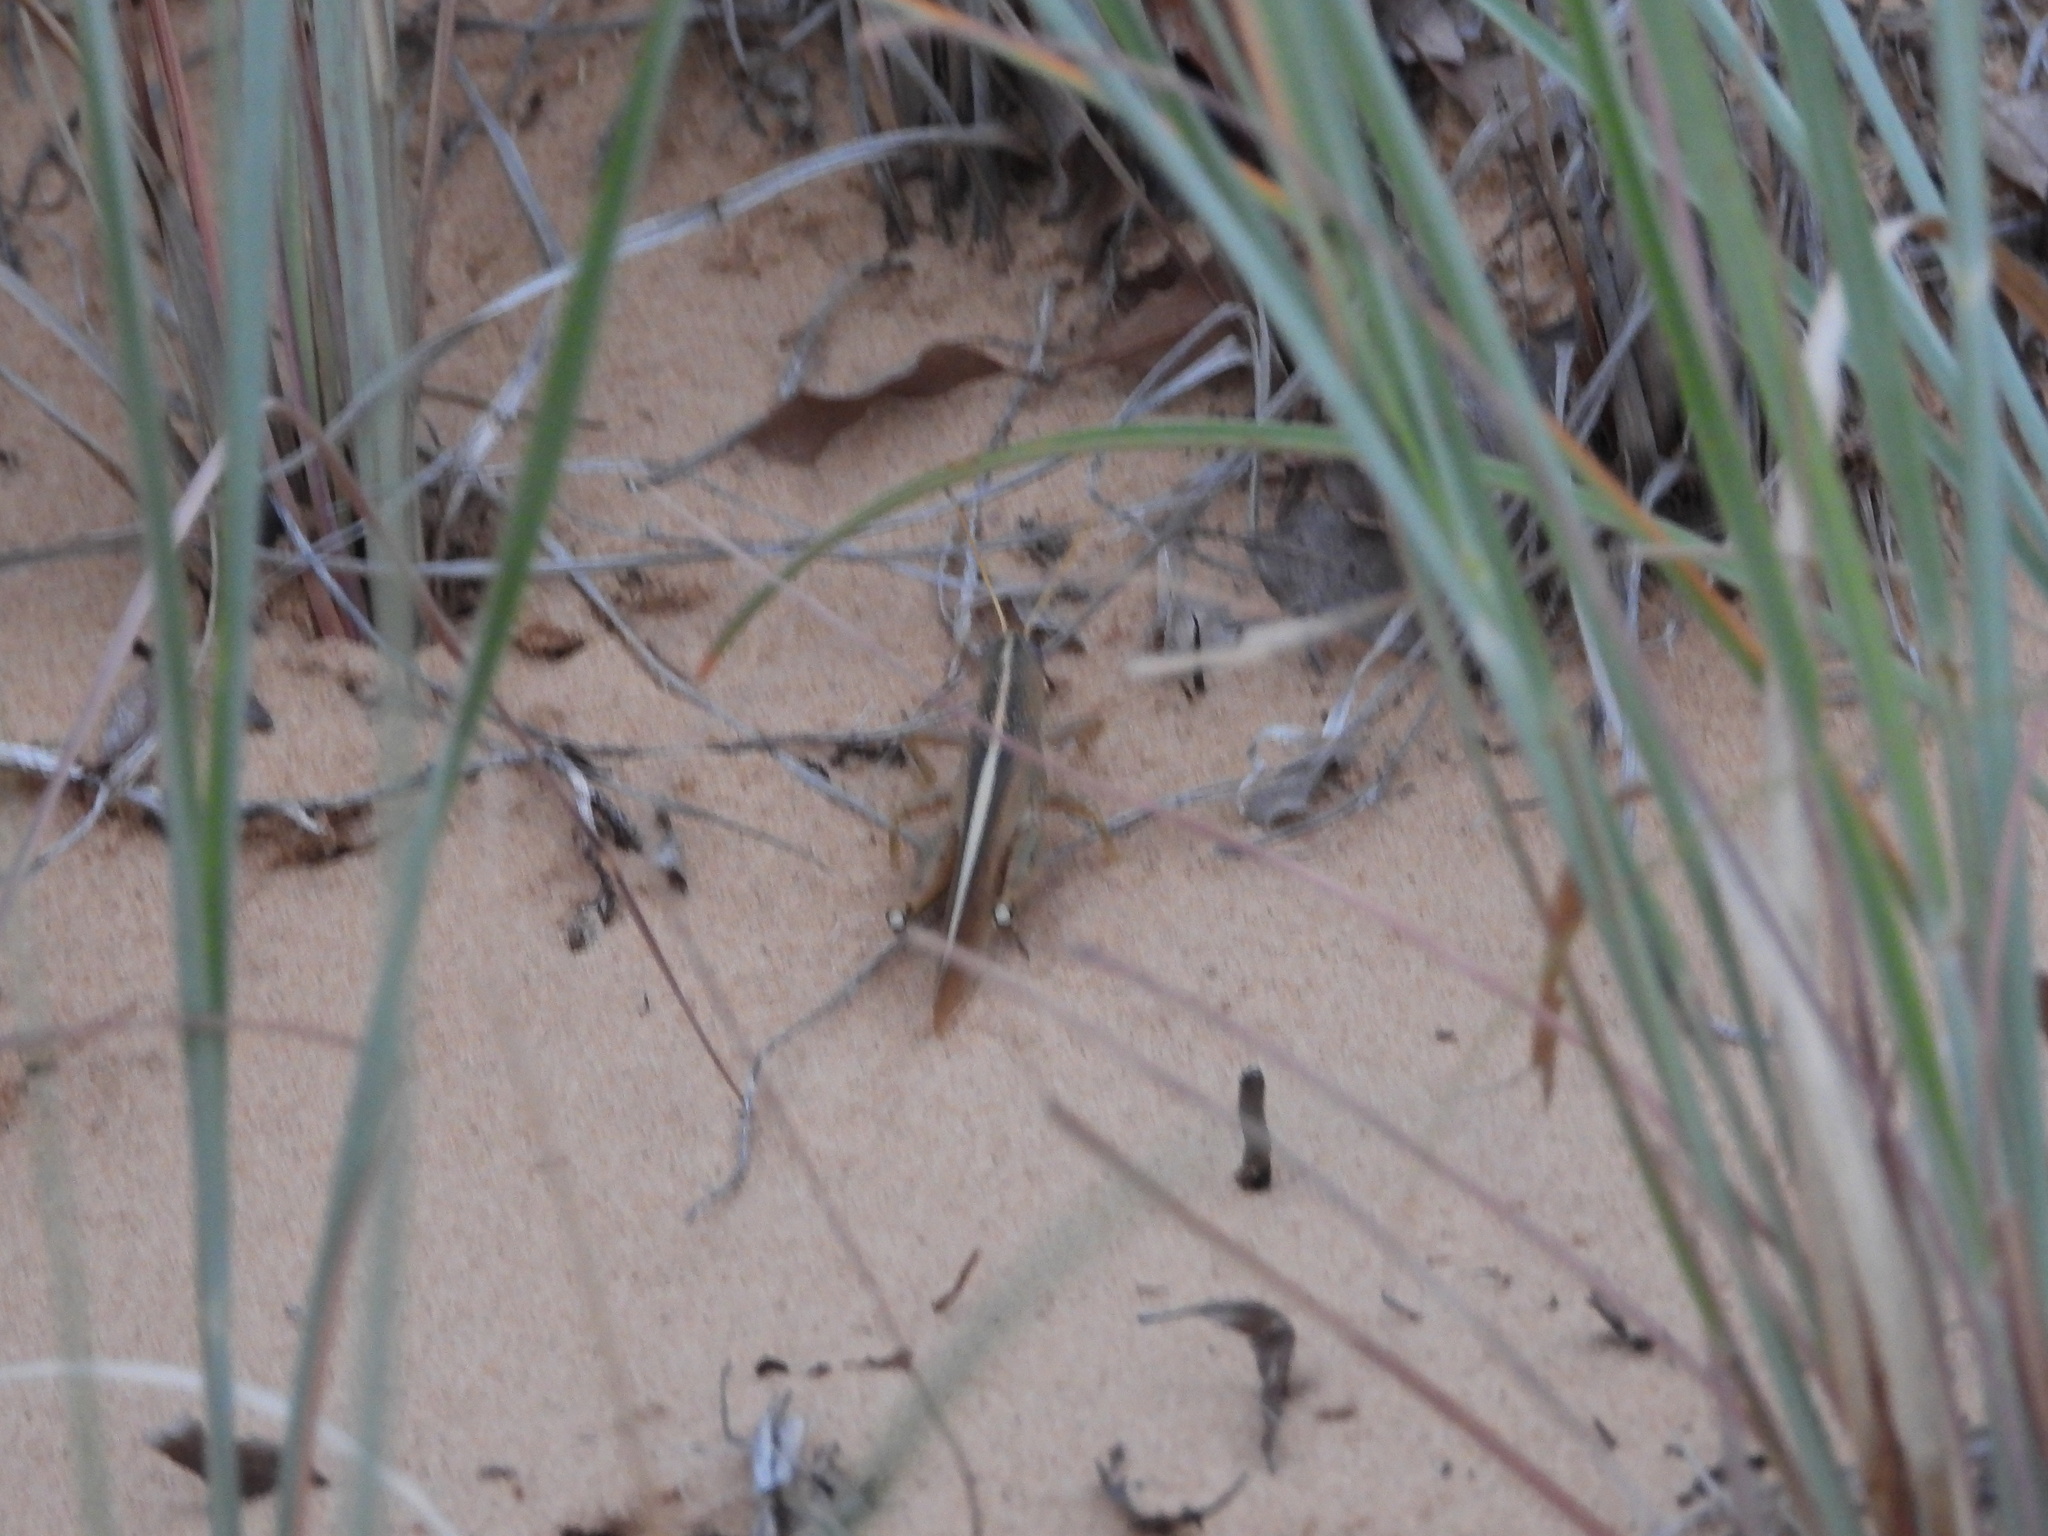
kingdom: Animalia
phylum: Arthropoda
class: Insecta
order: Orthoptera
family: Acrididae
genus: Schistocerca
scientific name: Schistocerca lineata
